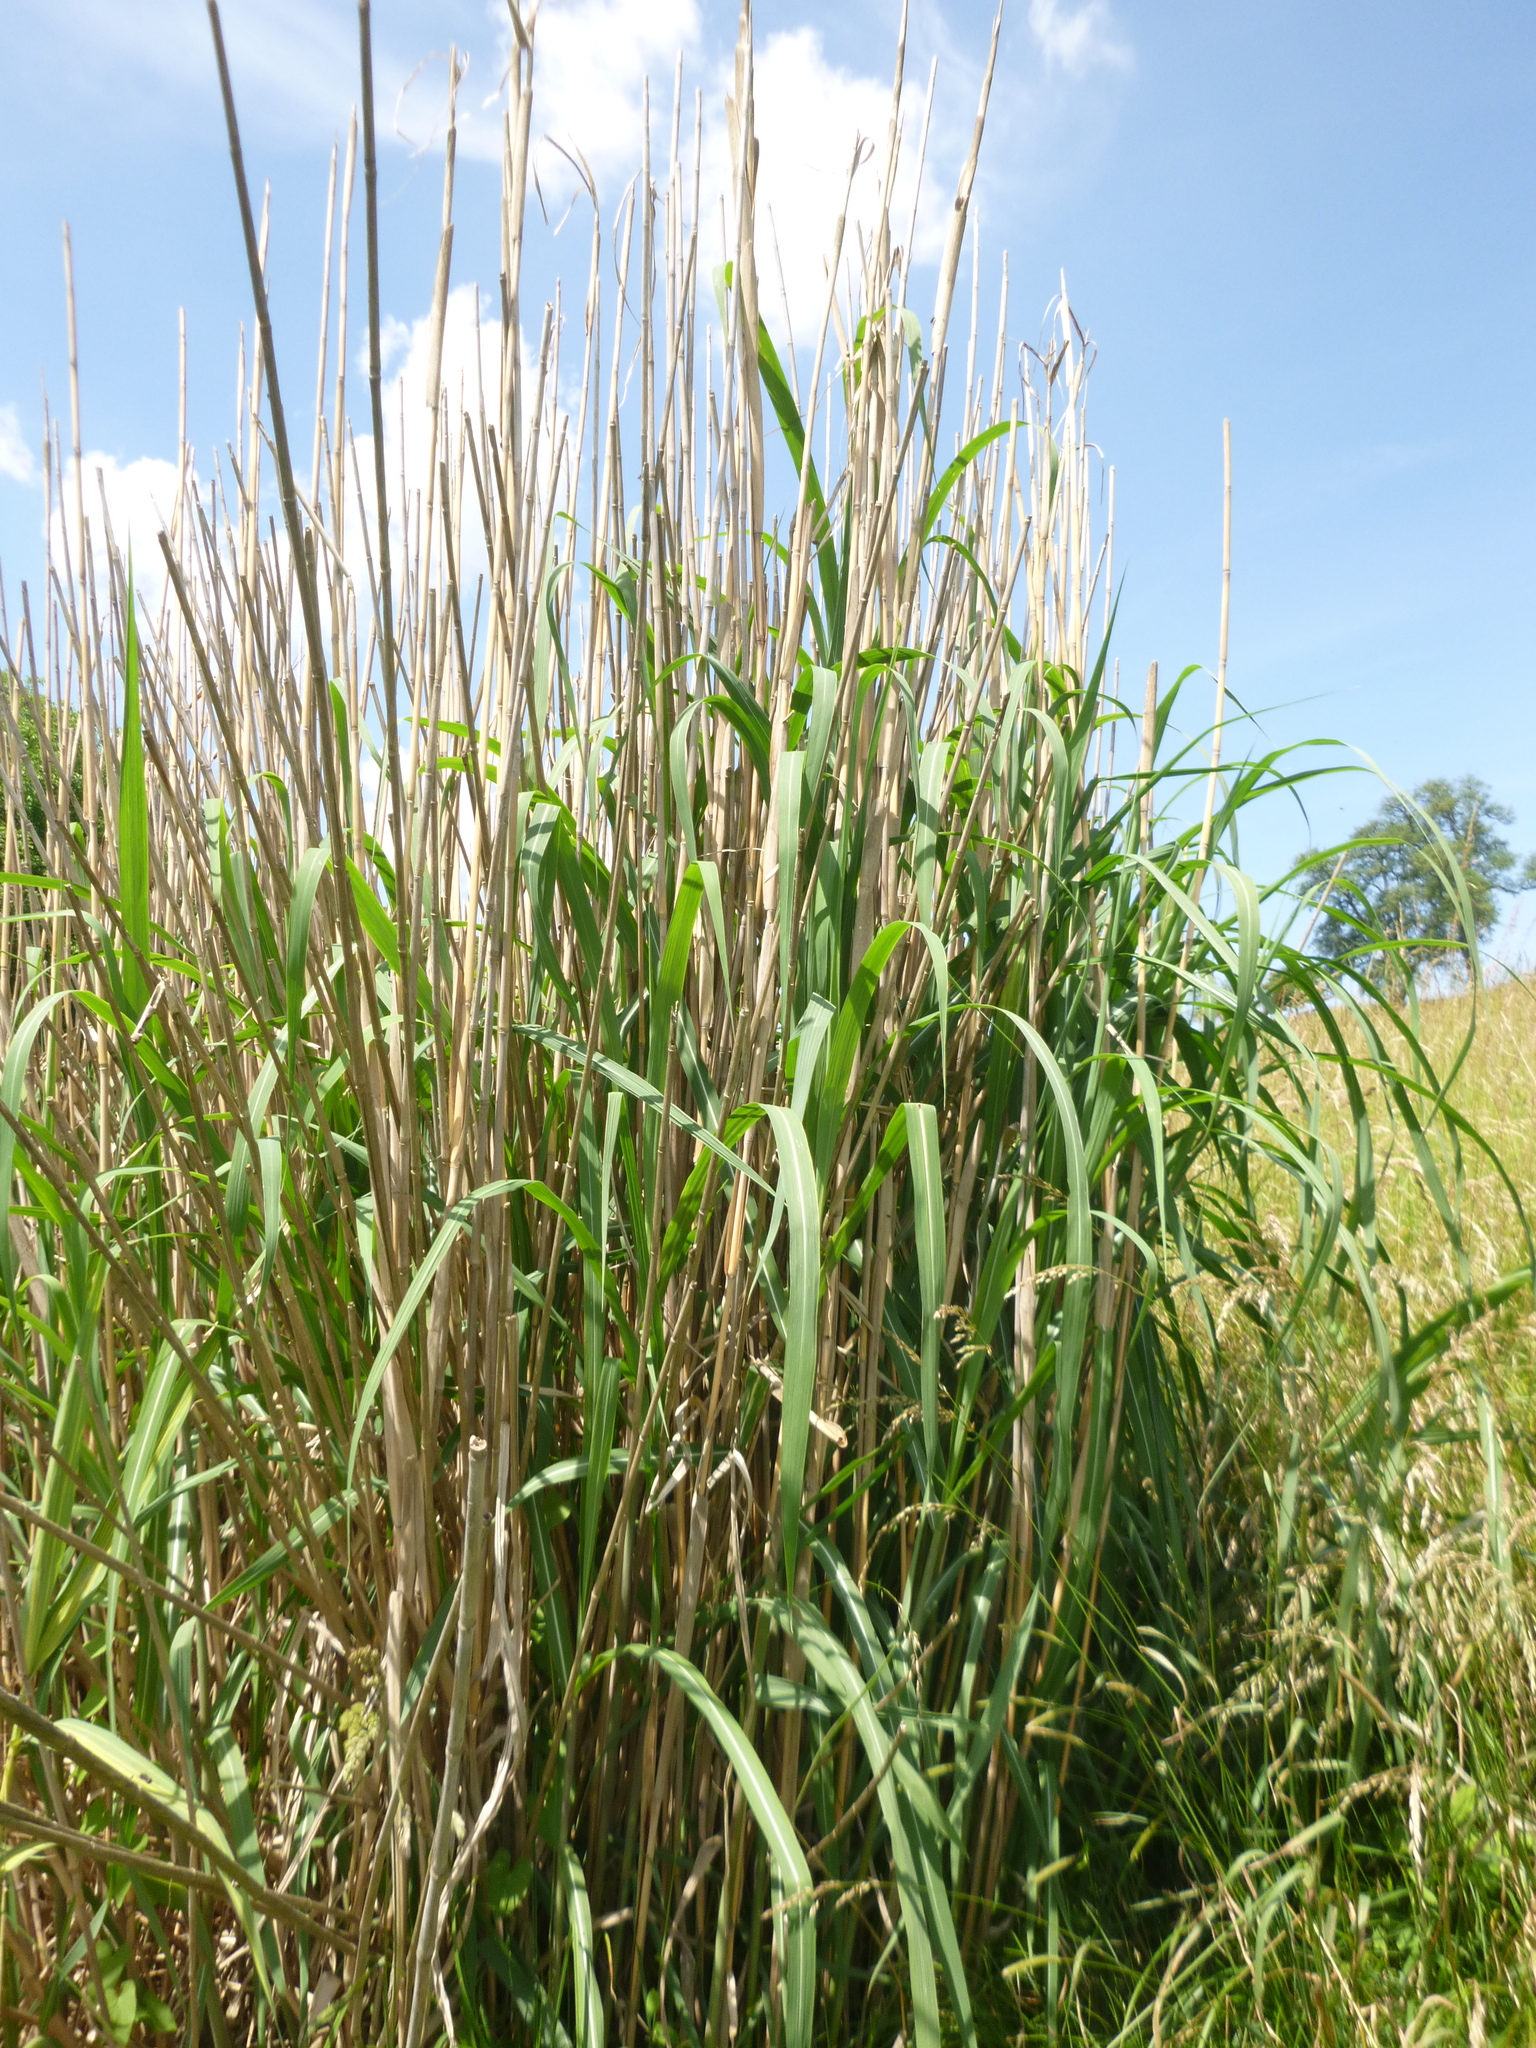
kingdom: Plantae
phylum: Tracheophyta
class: Liliopsida
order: Poales
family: Poaceae
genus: Phragmites
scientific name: Phragmites australis
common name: Common reed
